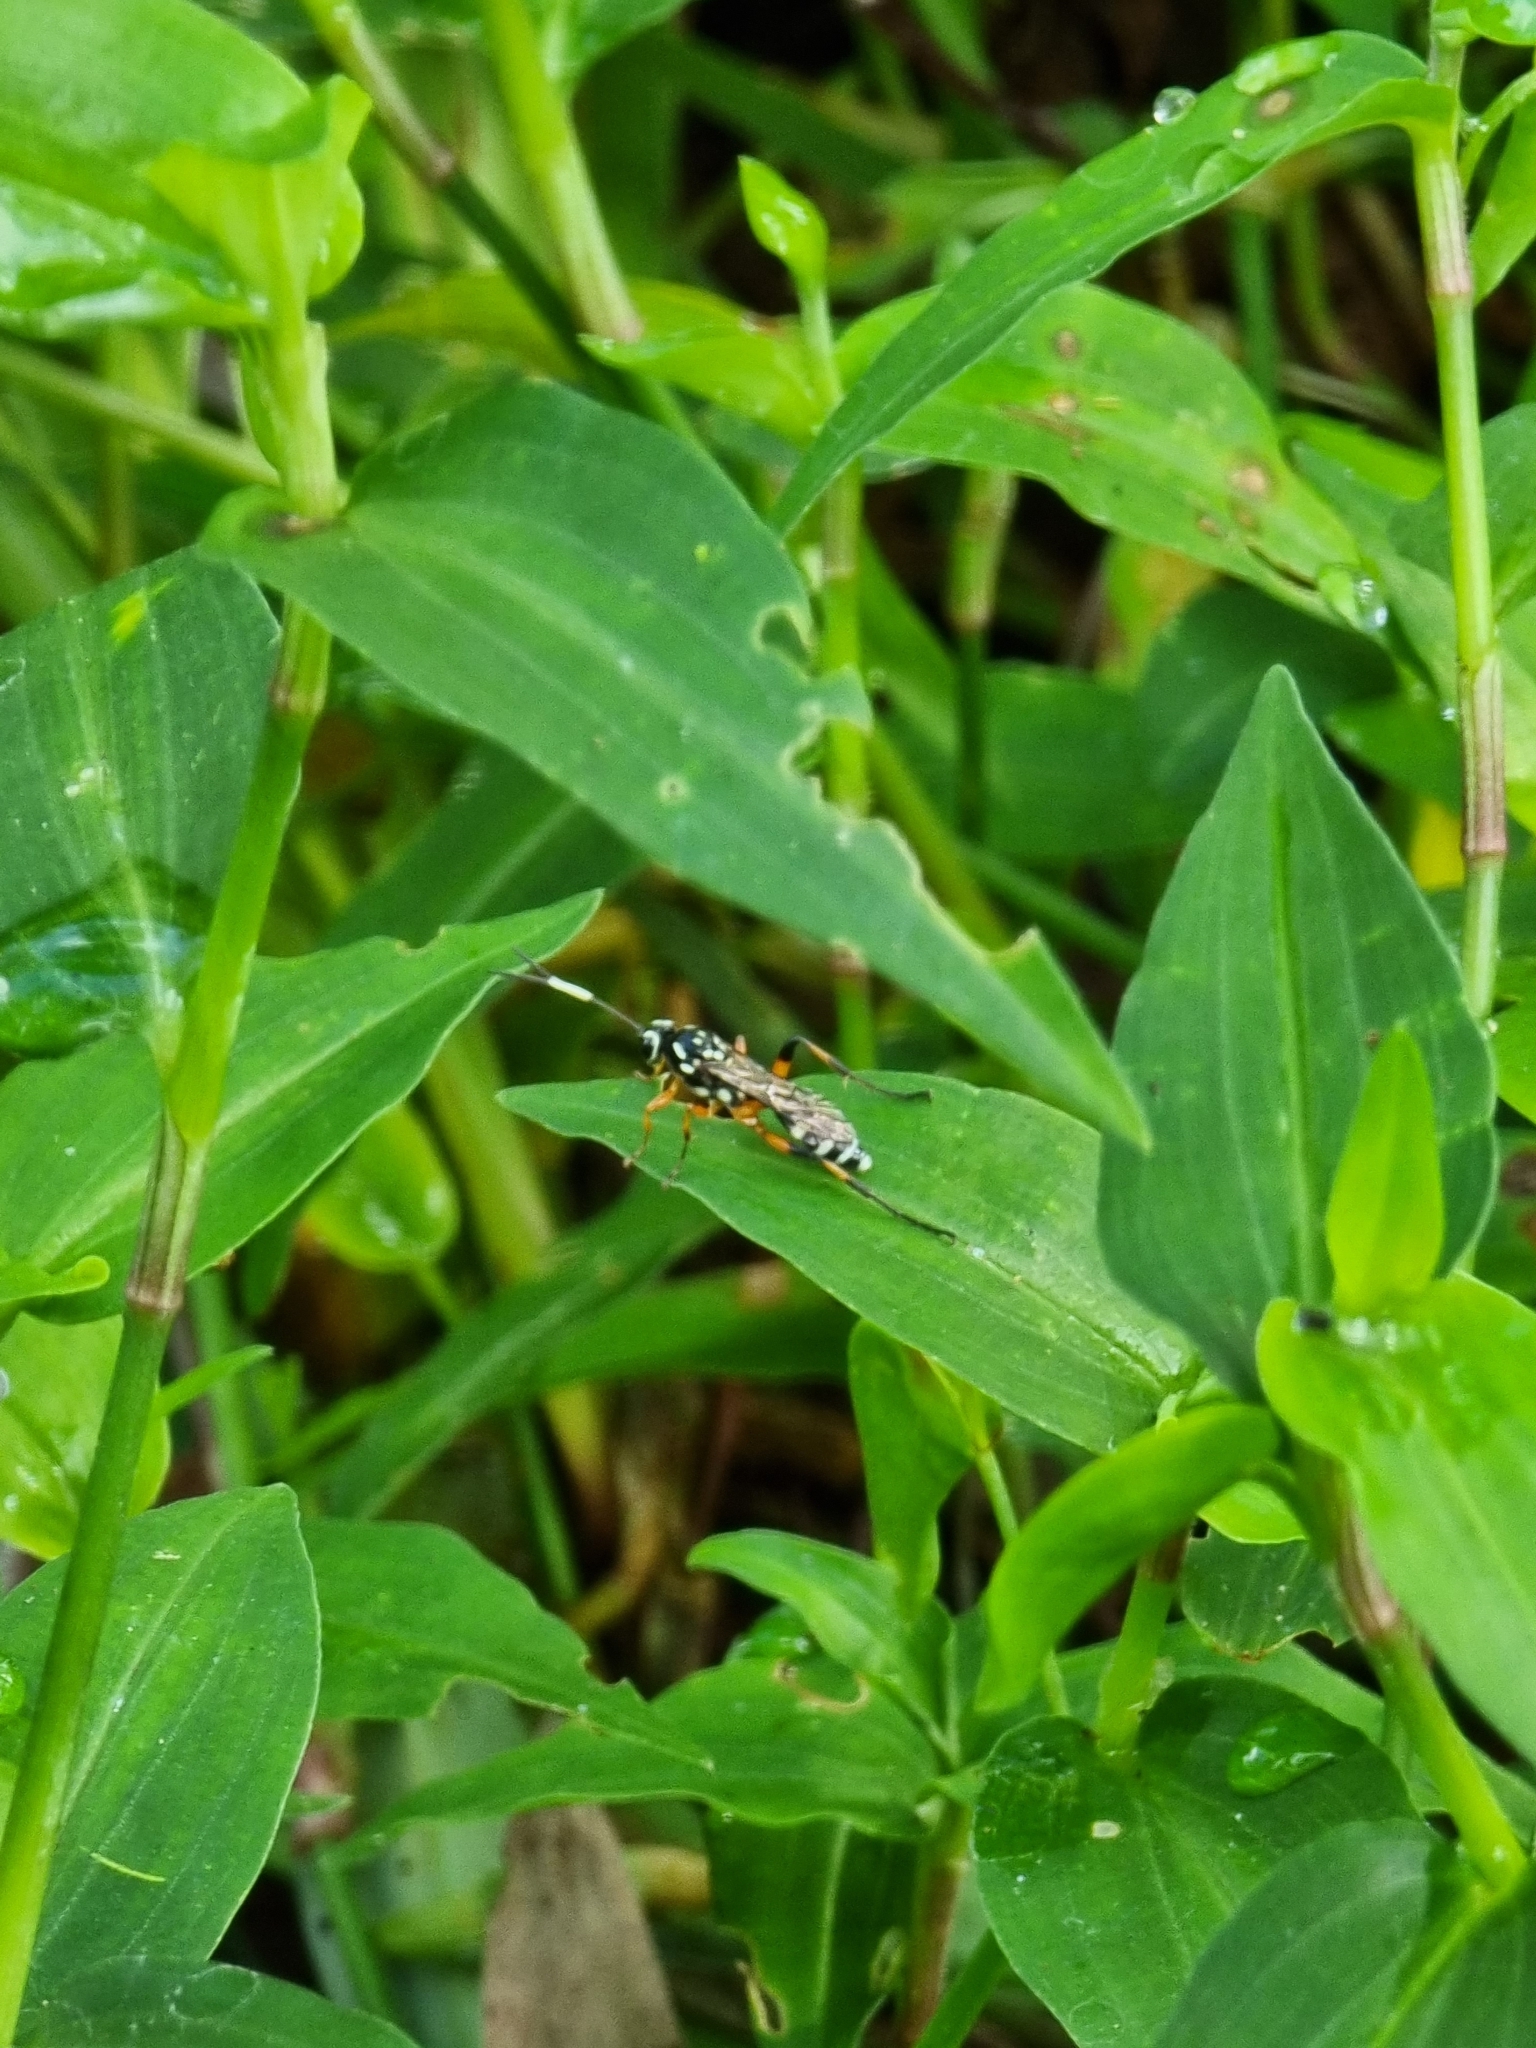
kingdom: Animalia
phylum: Arthropoda
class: Insecta
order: Hymenoptera
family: Ichneumonidae
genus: Xanthocryptus
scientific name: Xanthocryptus novozealandicus
